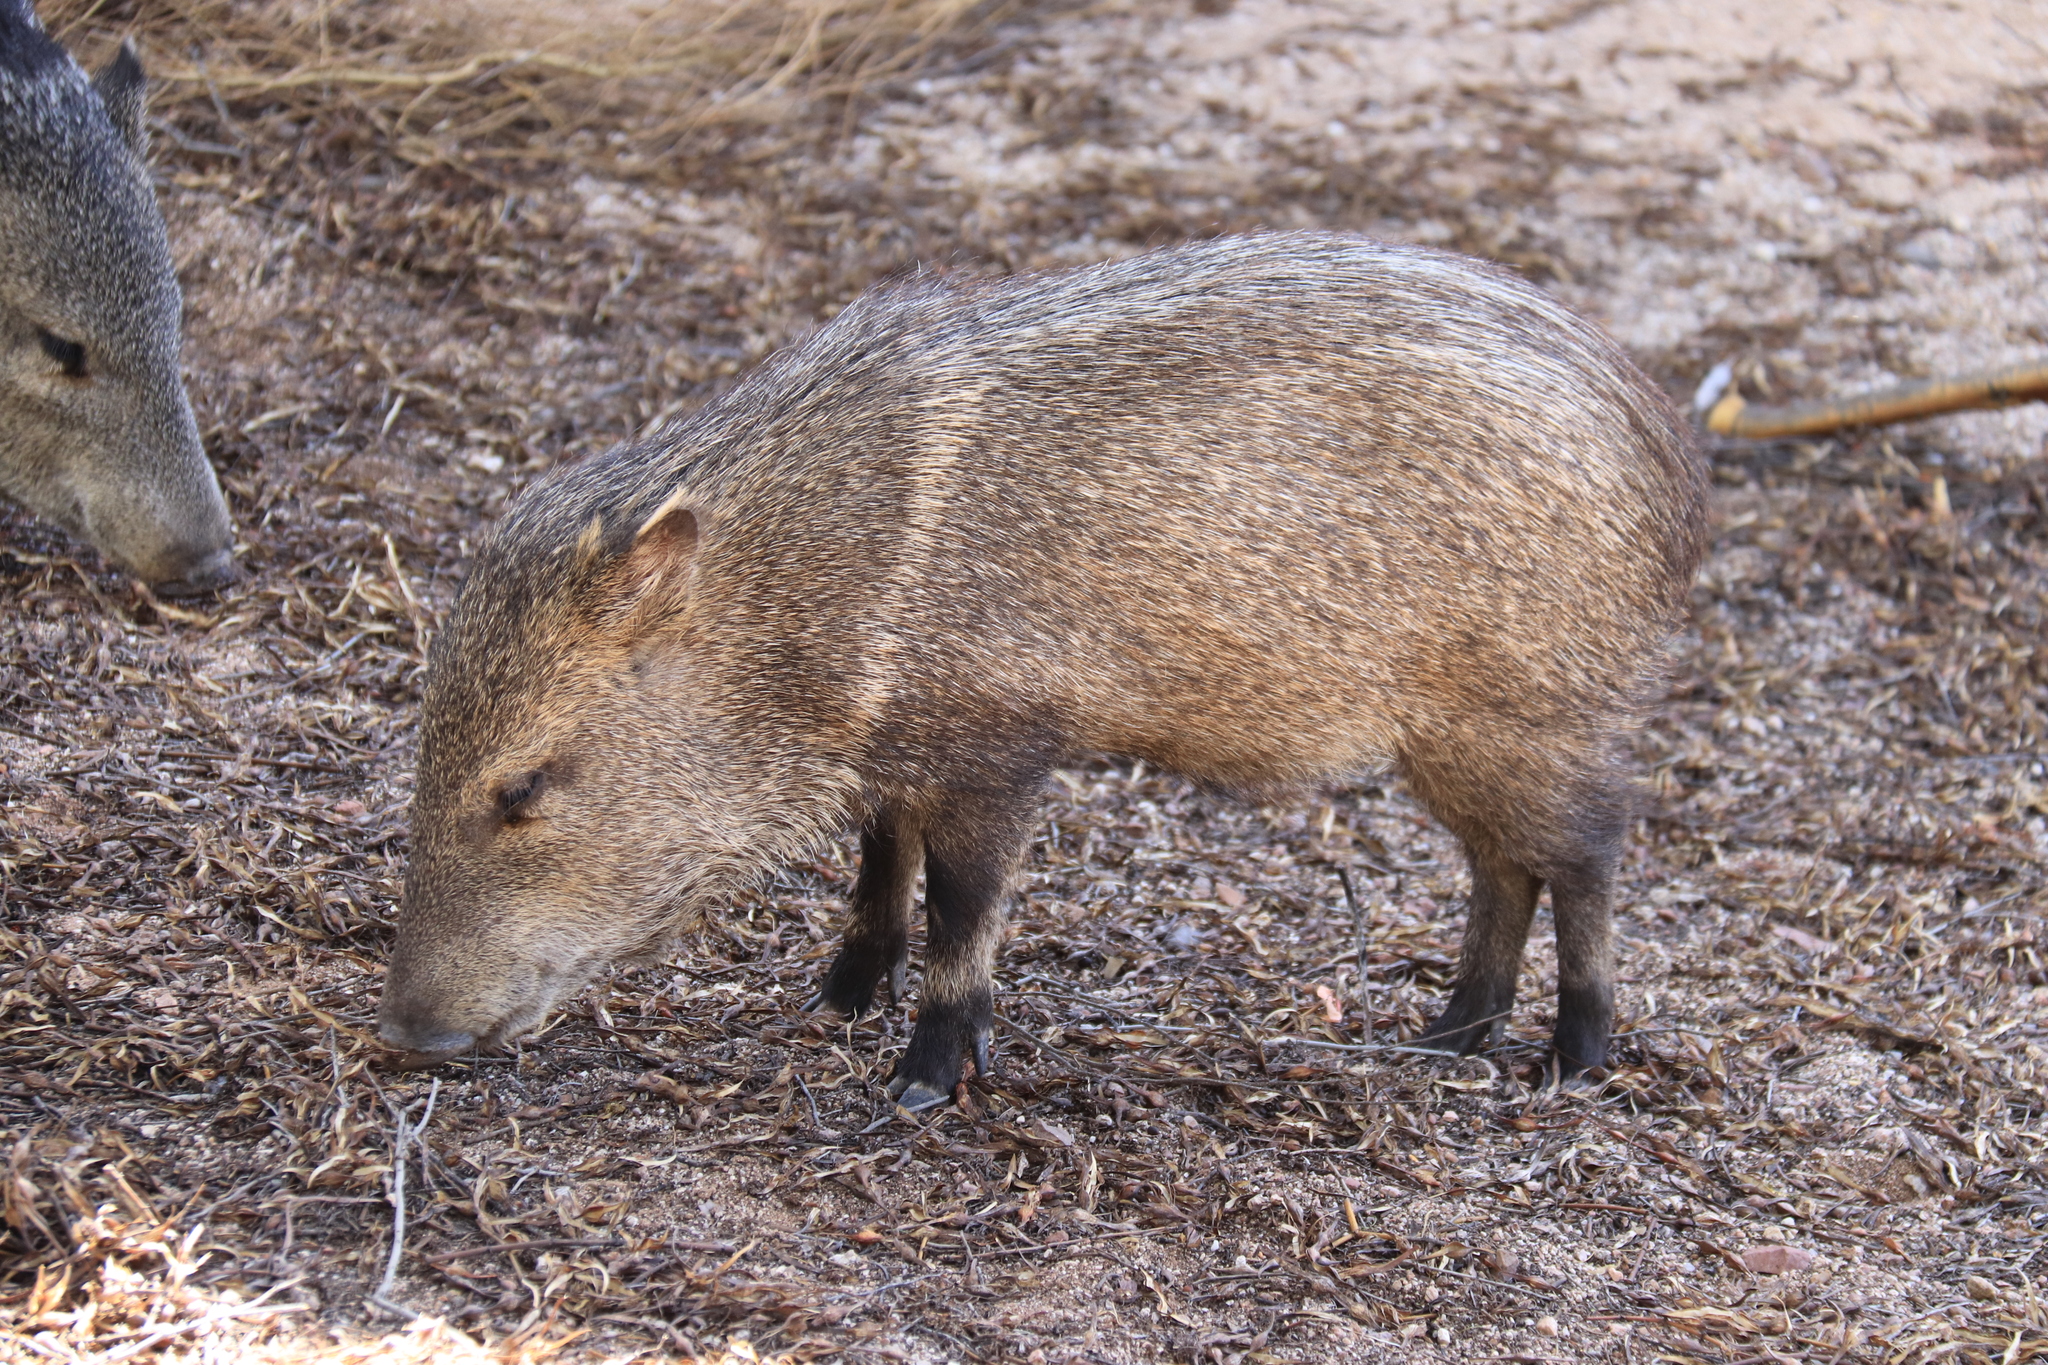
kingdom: Animalia
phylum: Chordata
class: Mammalia
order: Artiodactyla
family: Tayassuidae
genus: Pecari
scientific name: Pecari tajacu
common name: Collared peccary
